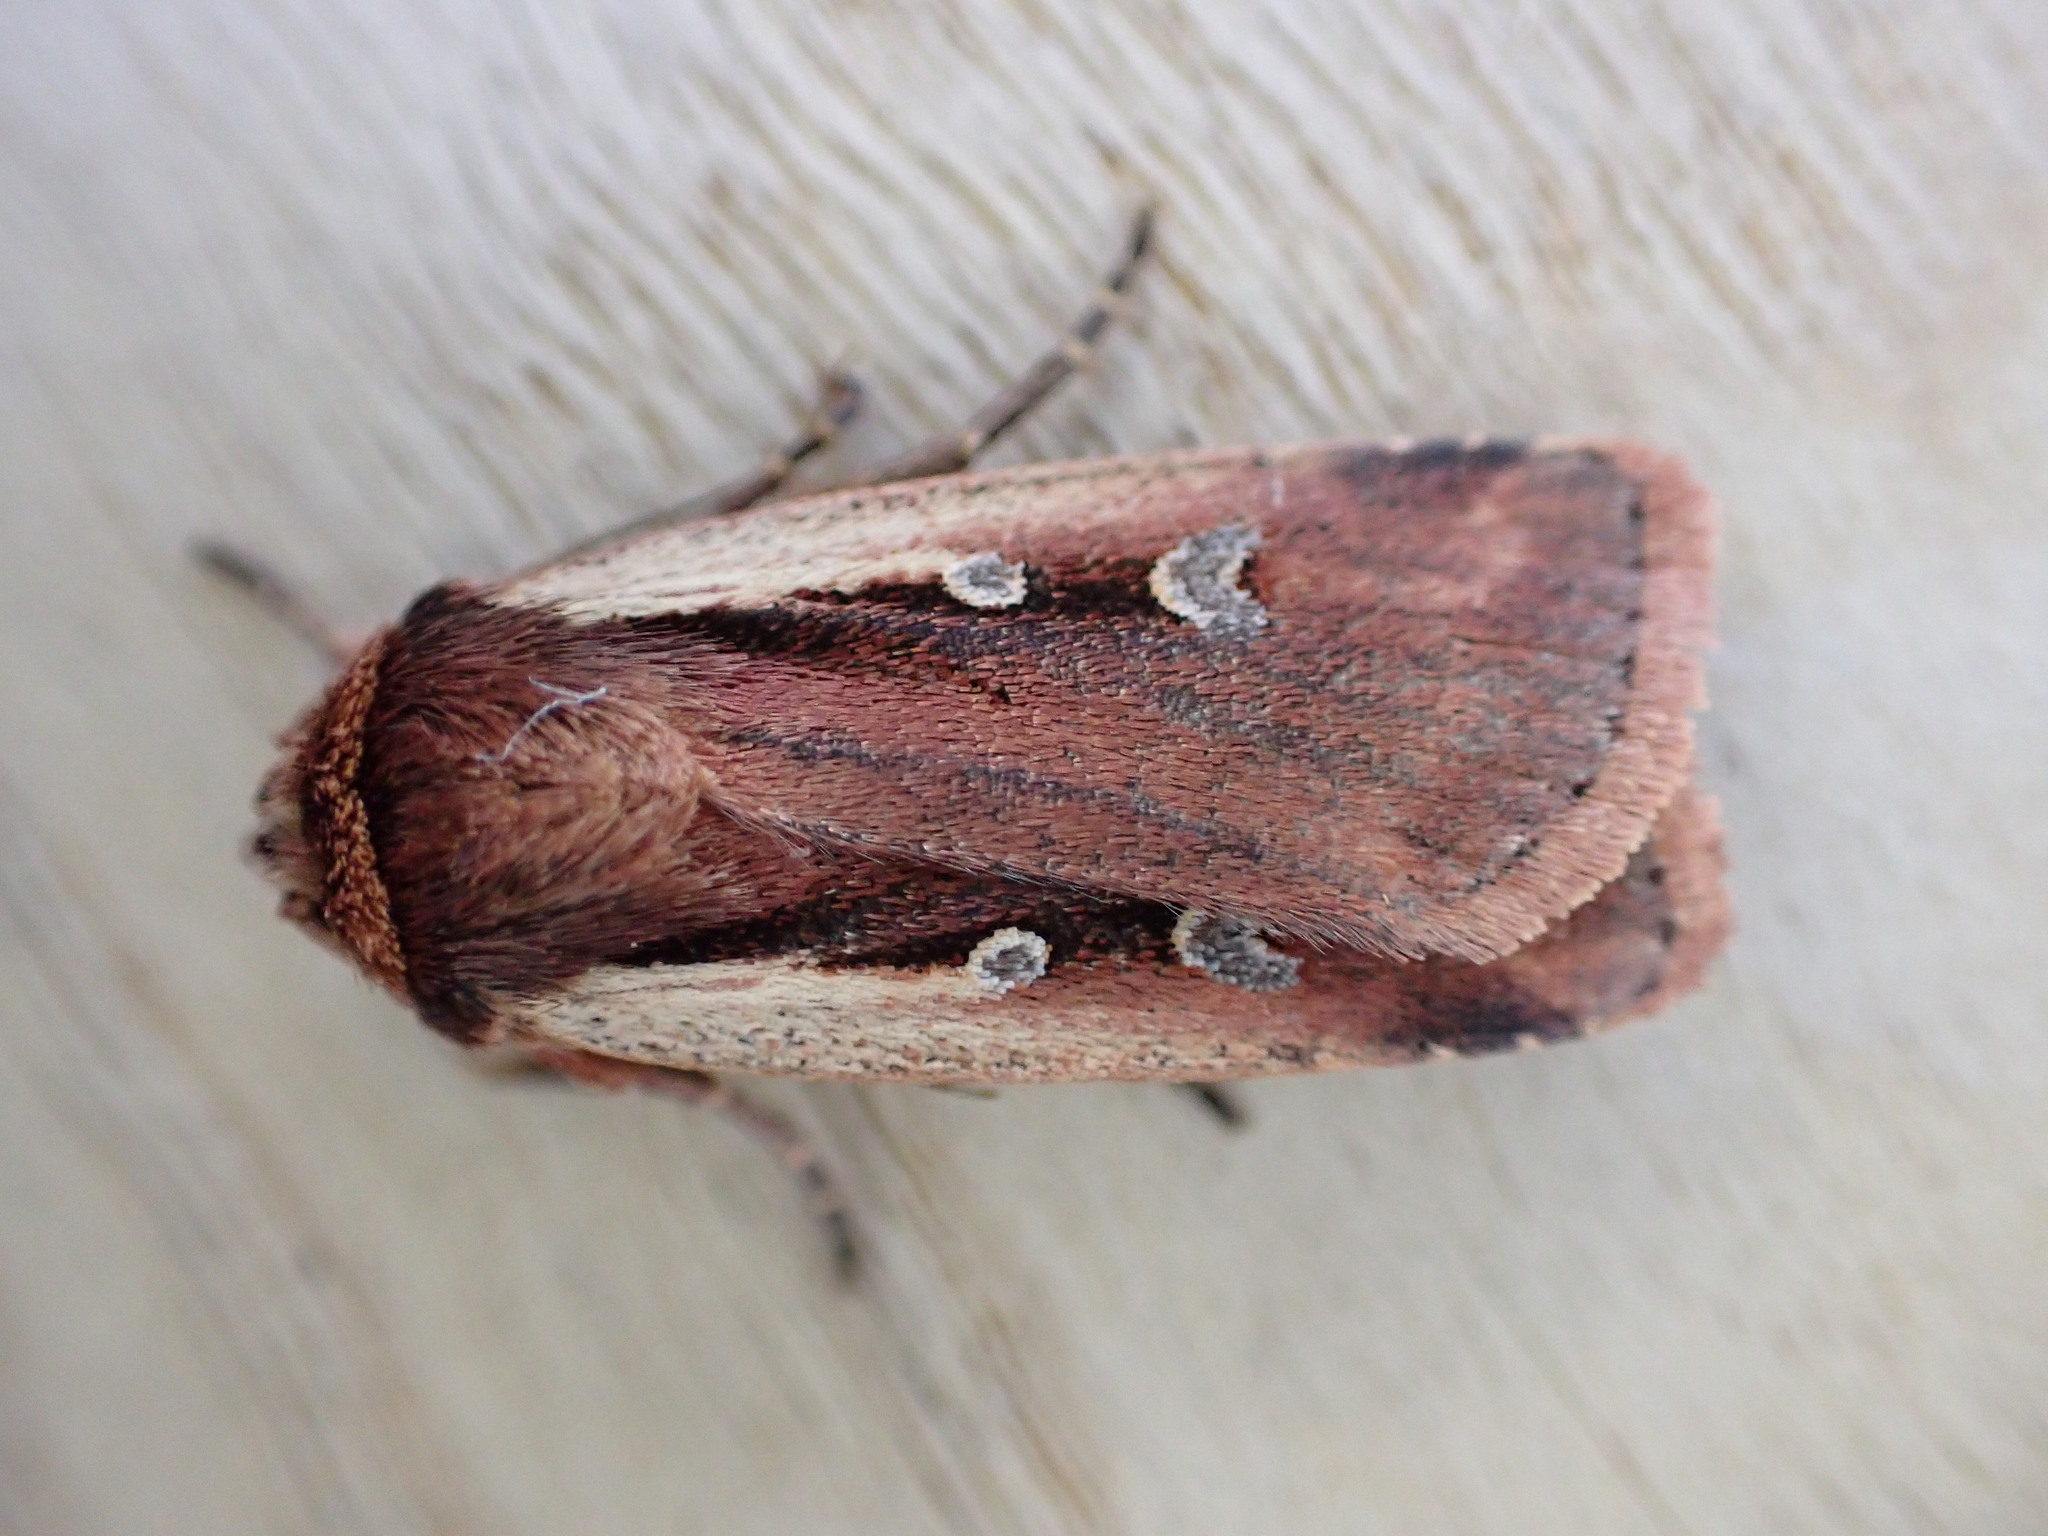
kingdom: Animalia
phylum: Arthropoda
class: Insecta
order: Lepidoptera
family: Noctuidae
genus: Ochropleura
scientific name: Ochropleura plecta
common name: Flame shoulder
